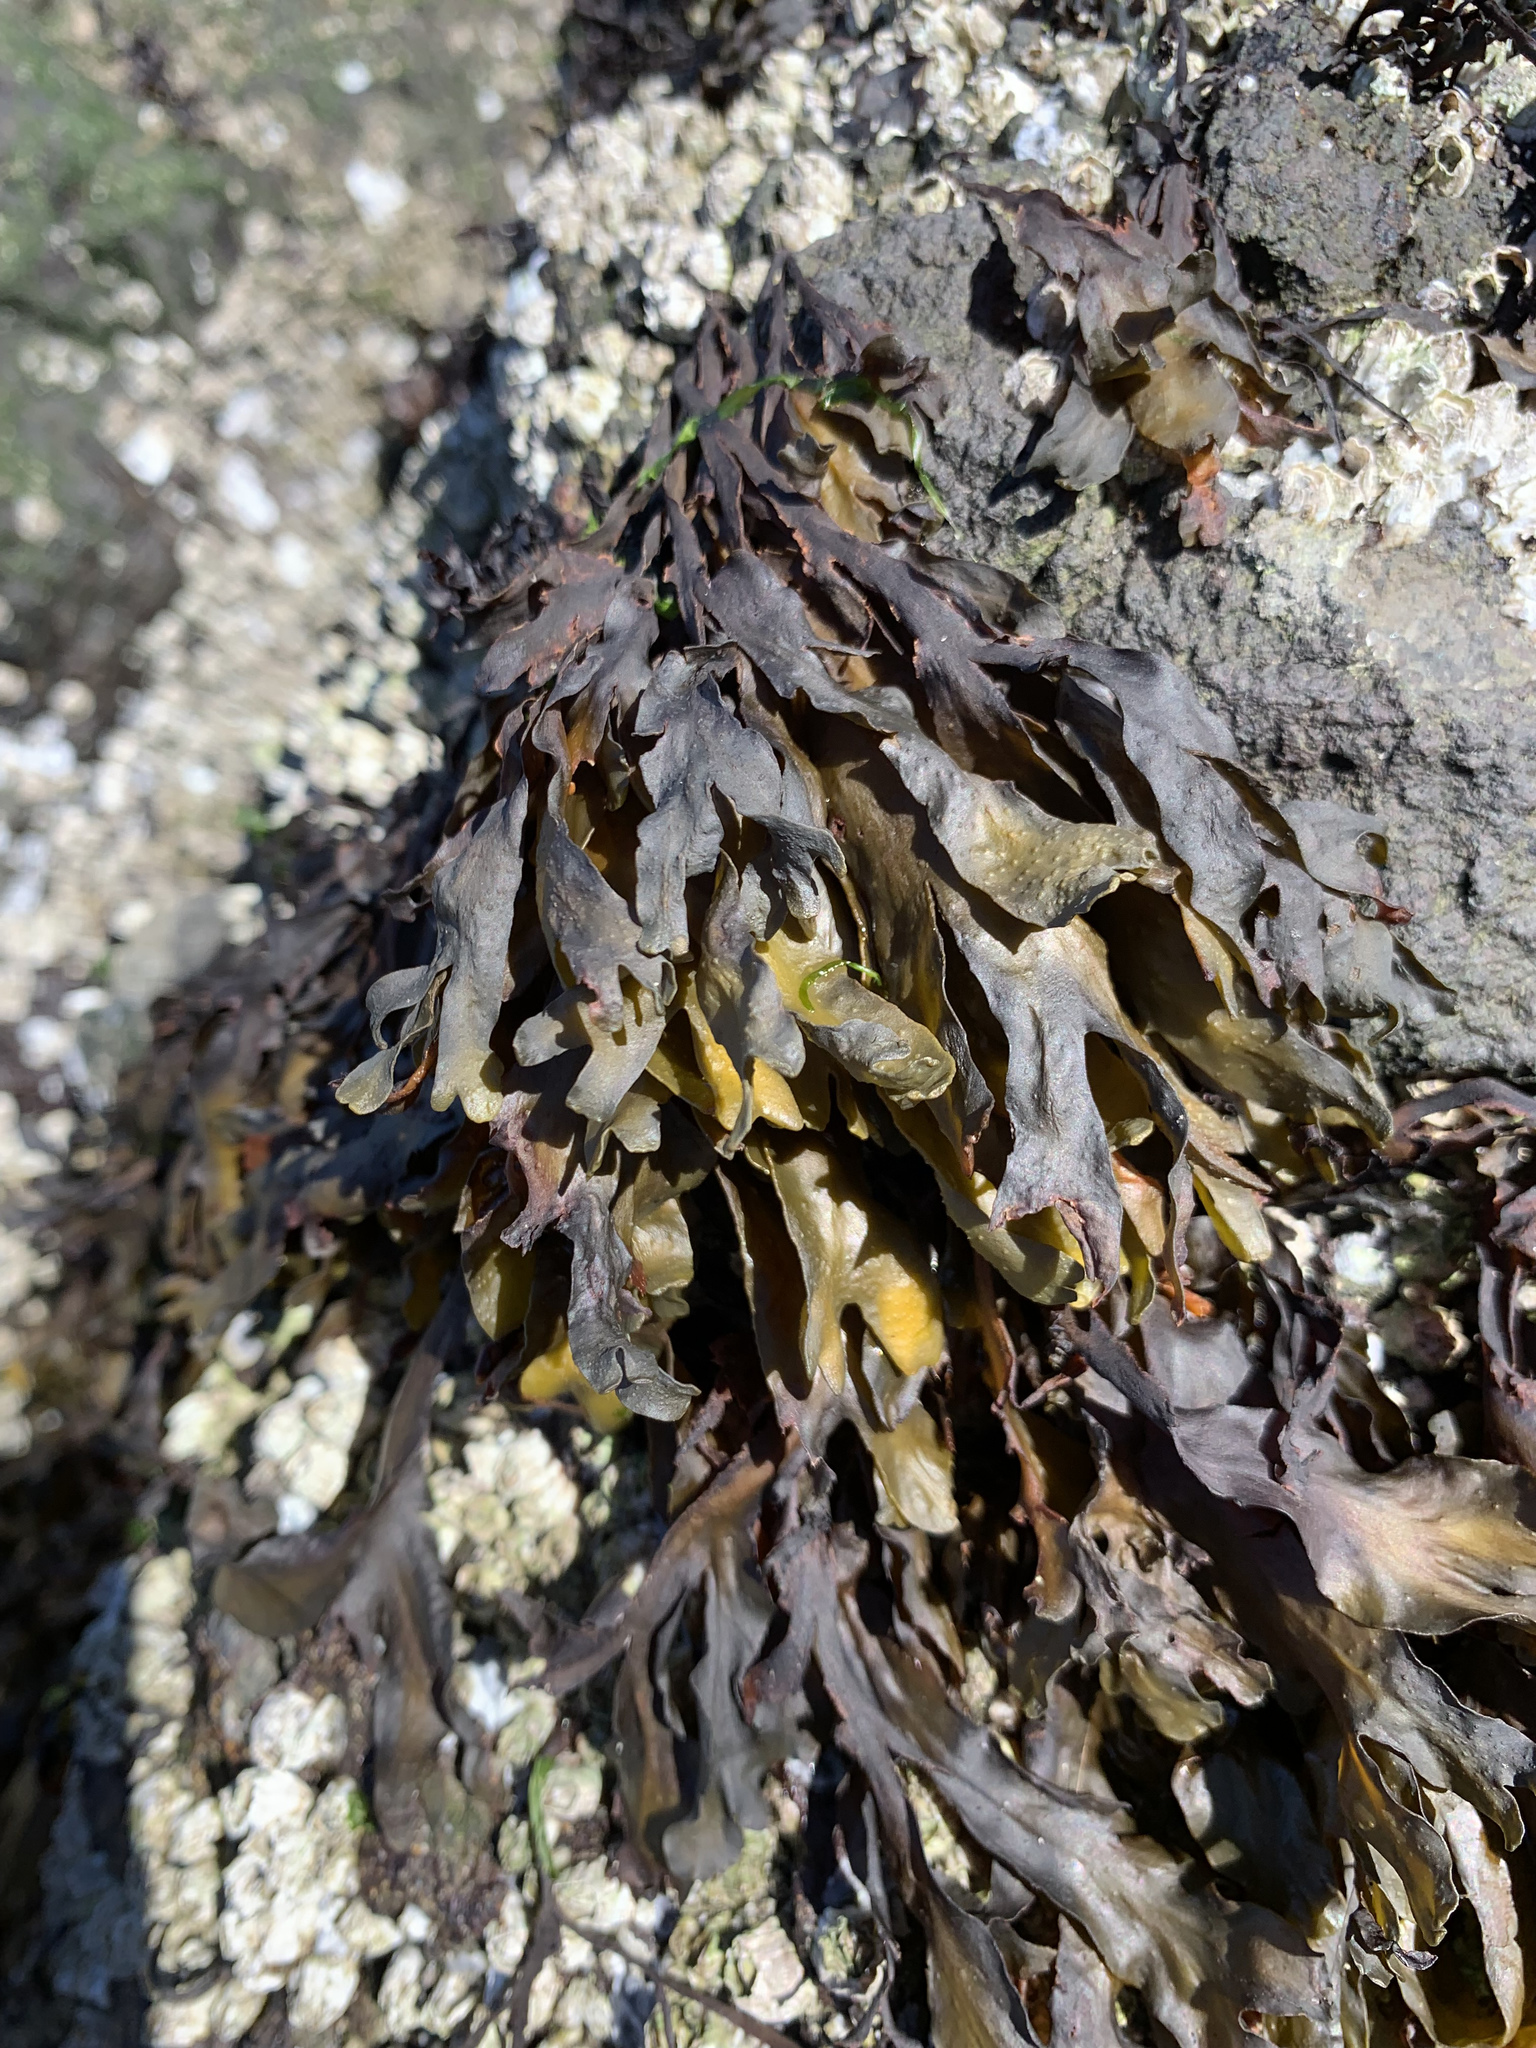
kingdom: Chromista
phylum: Ochrophyta
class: Phaeophyceae
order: Fucales
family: Fucaceae
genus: Fucus
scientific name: Fucus distichus
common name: Rockweed
